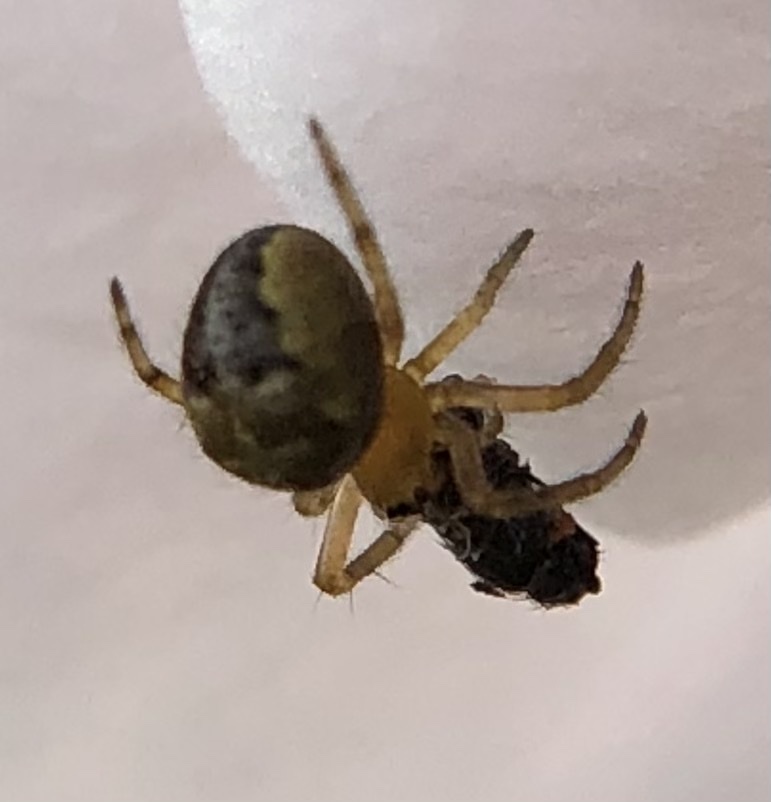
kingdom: Animalia
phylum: Arthropoda
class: Arachnida
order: Araneae
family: Araneidae
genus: Araneus
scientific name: Araneus diadematus
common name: Cross orbweaver
